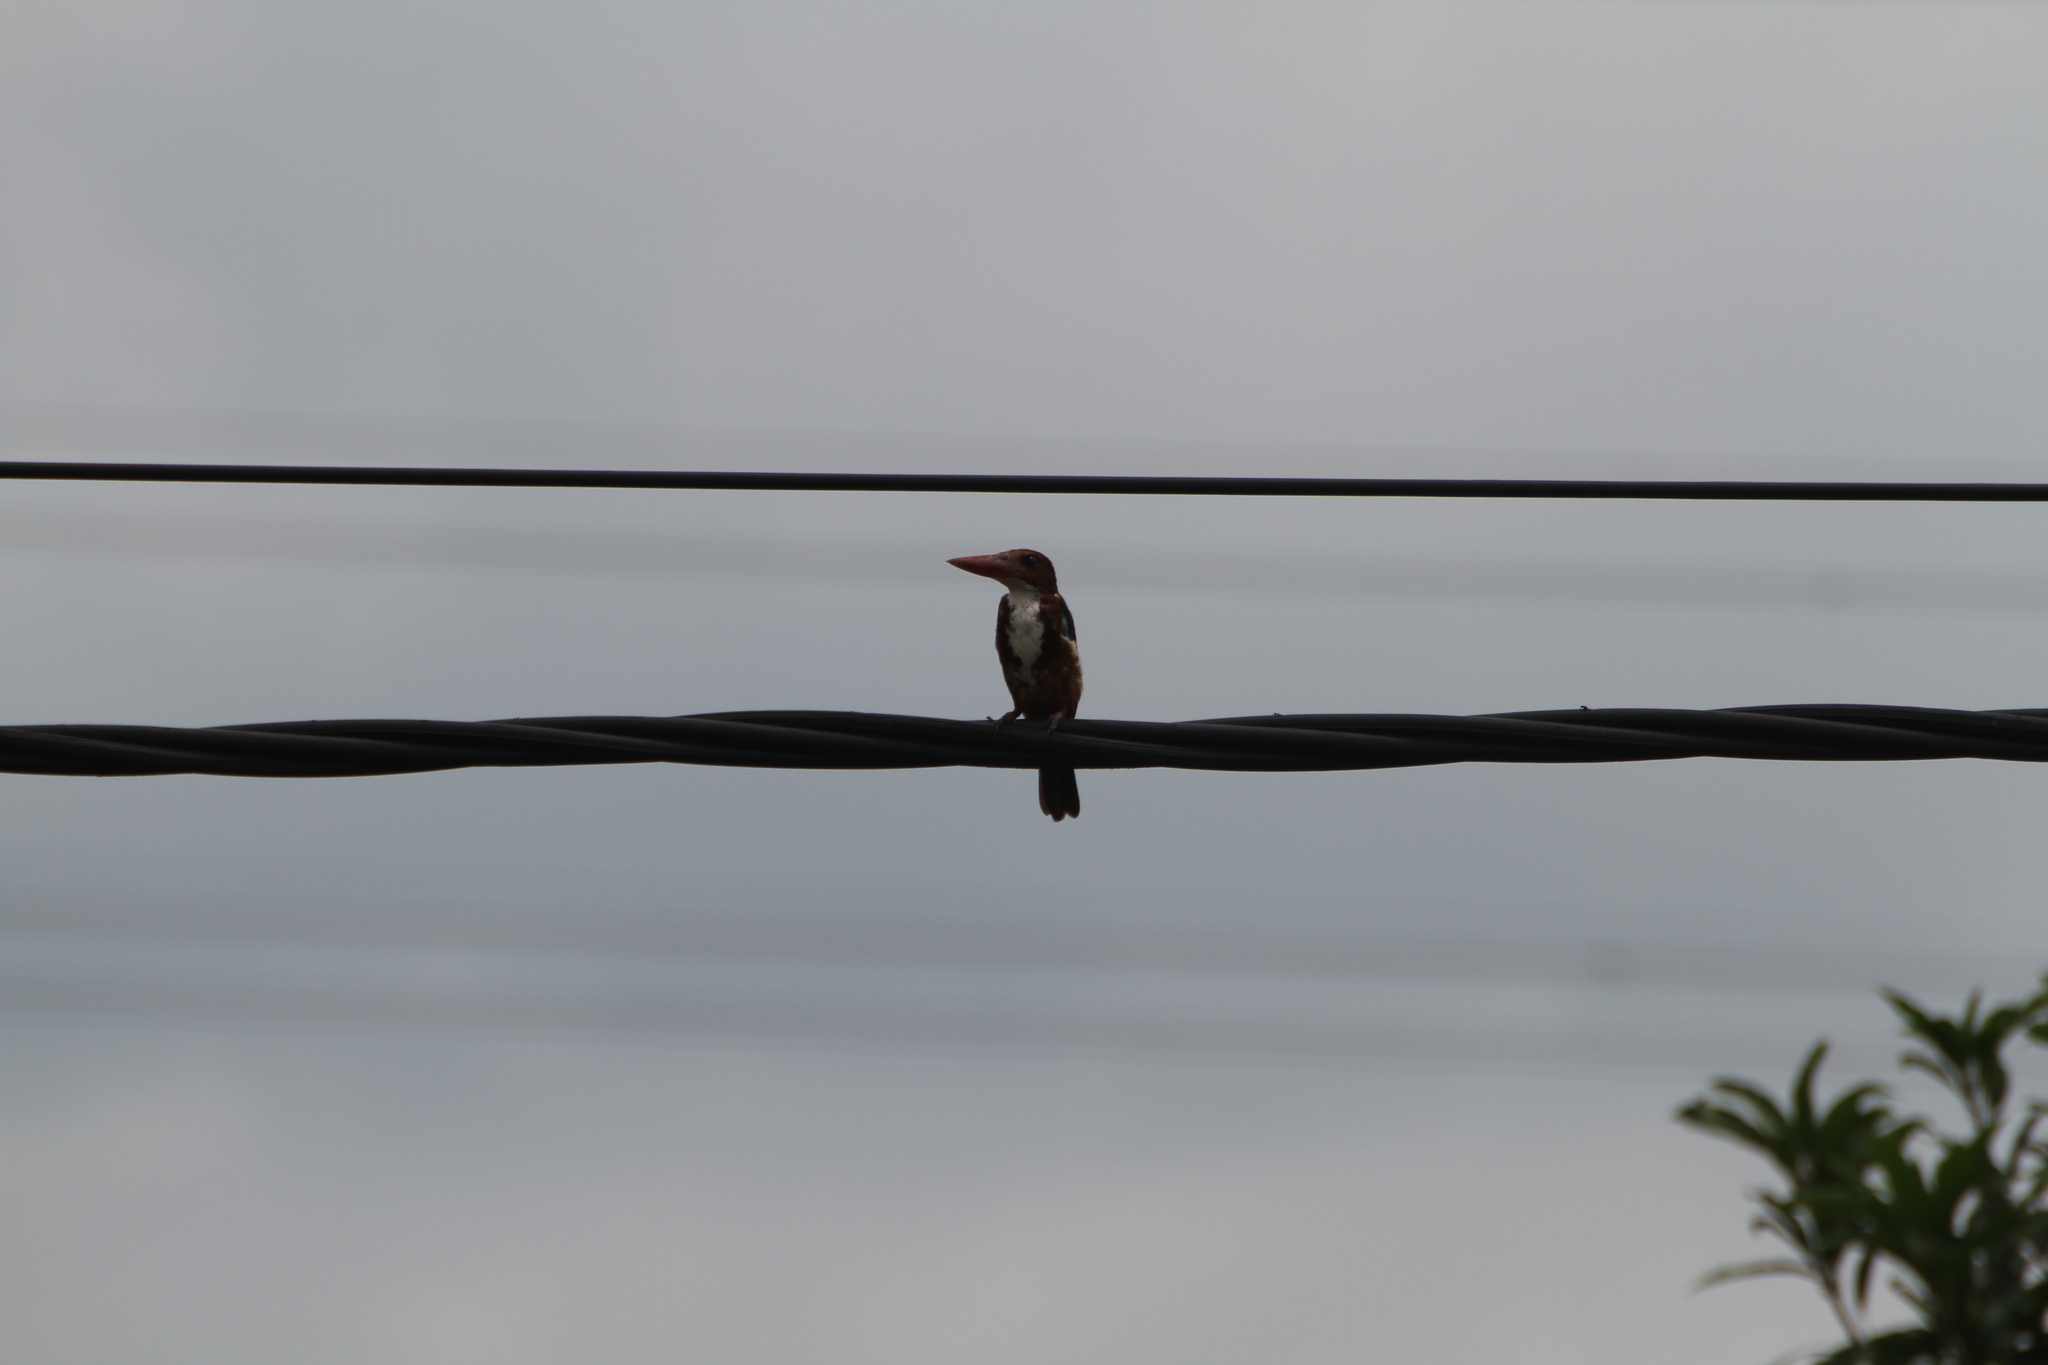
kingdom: Animalia
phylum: Chordata
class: Aves
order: Coraciiformes
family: Alcedinidae
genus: Halcyon
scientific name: Halcyon smyrnensis
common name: White-throated kingfisher
